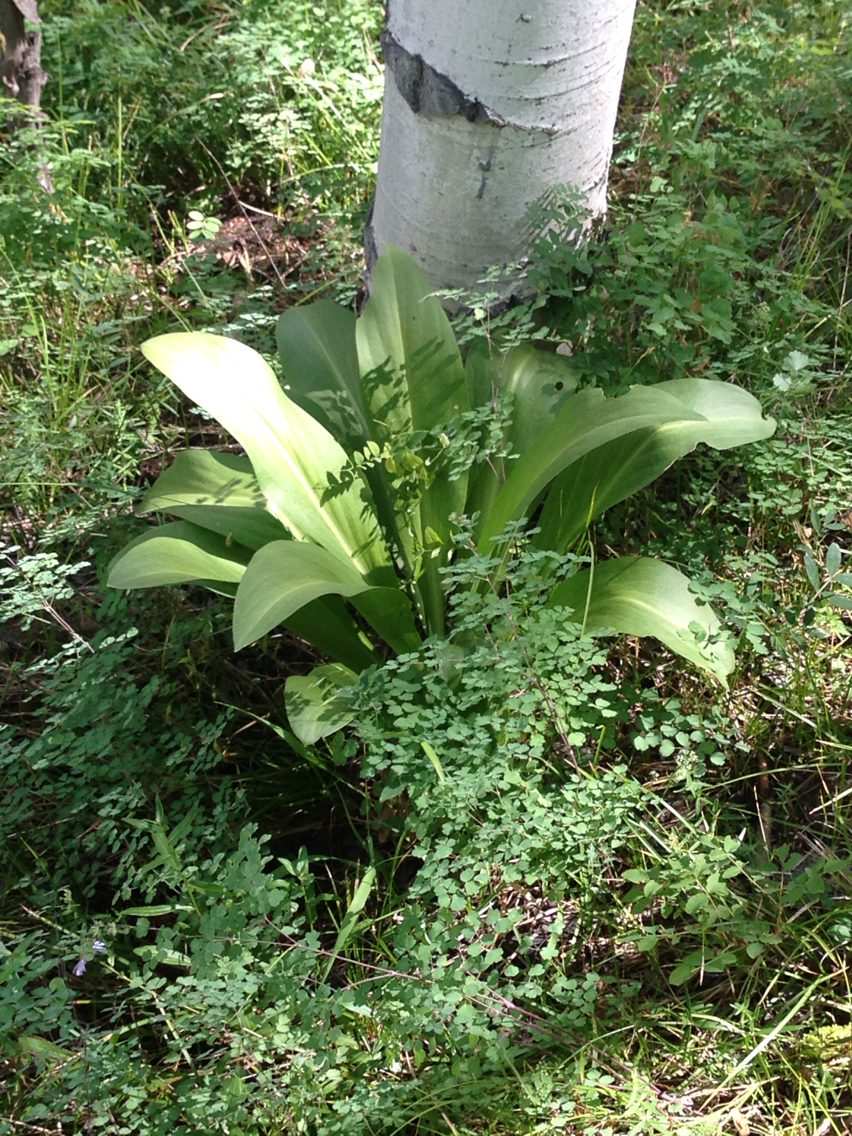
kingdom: Plantae
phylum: Tracheophyta
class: Magnoliopsida
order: Gentianales
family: Gentianaceae
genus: Frasera
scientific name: Frasera speciosa
